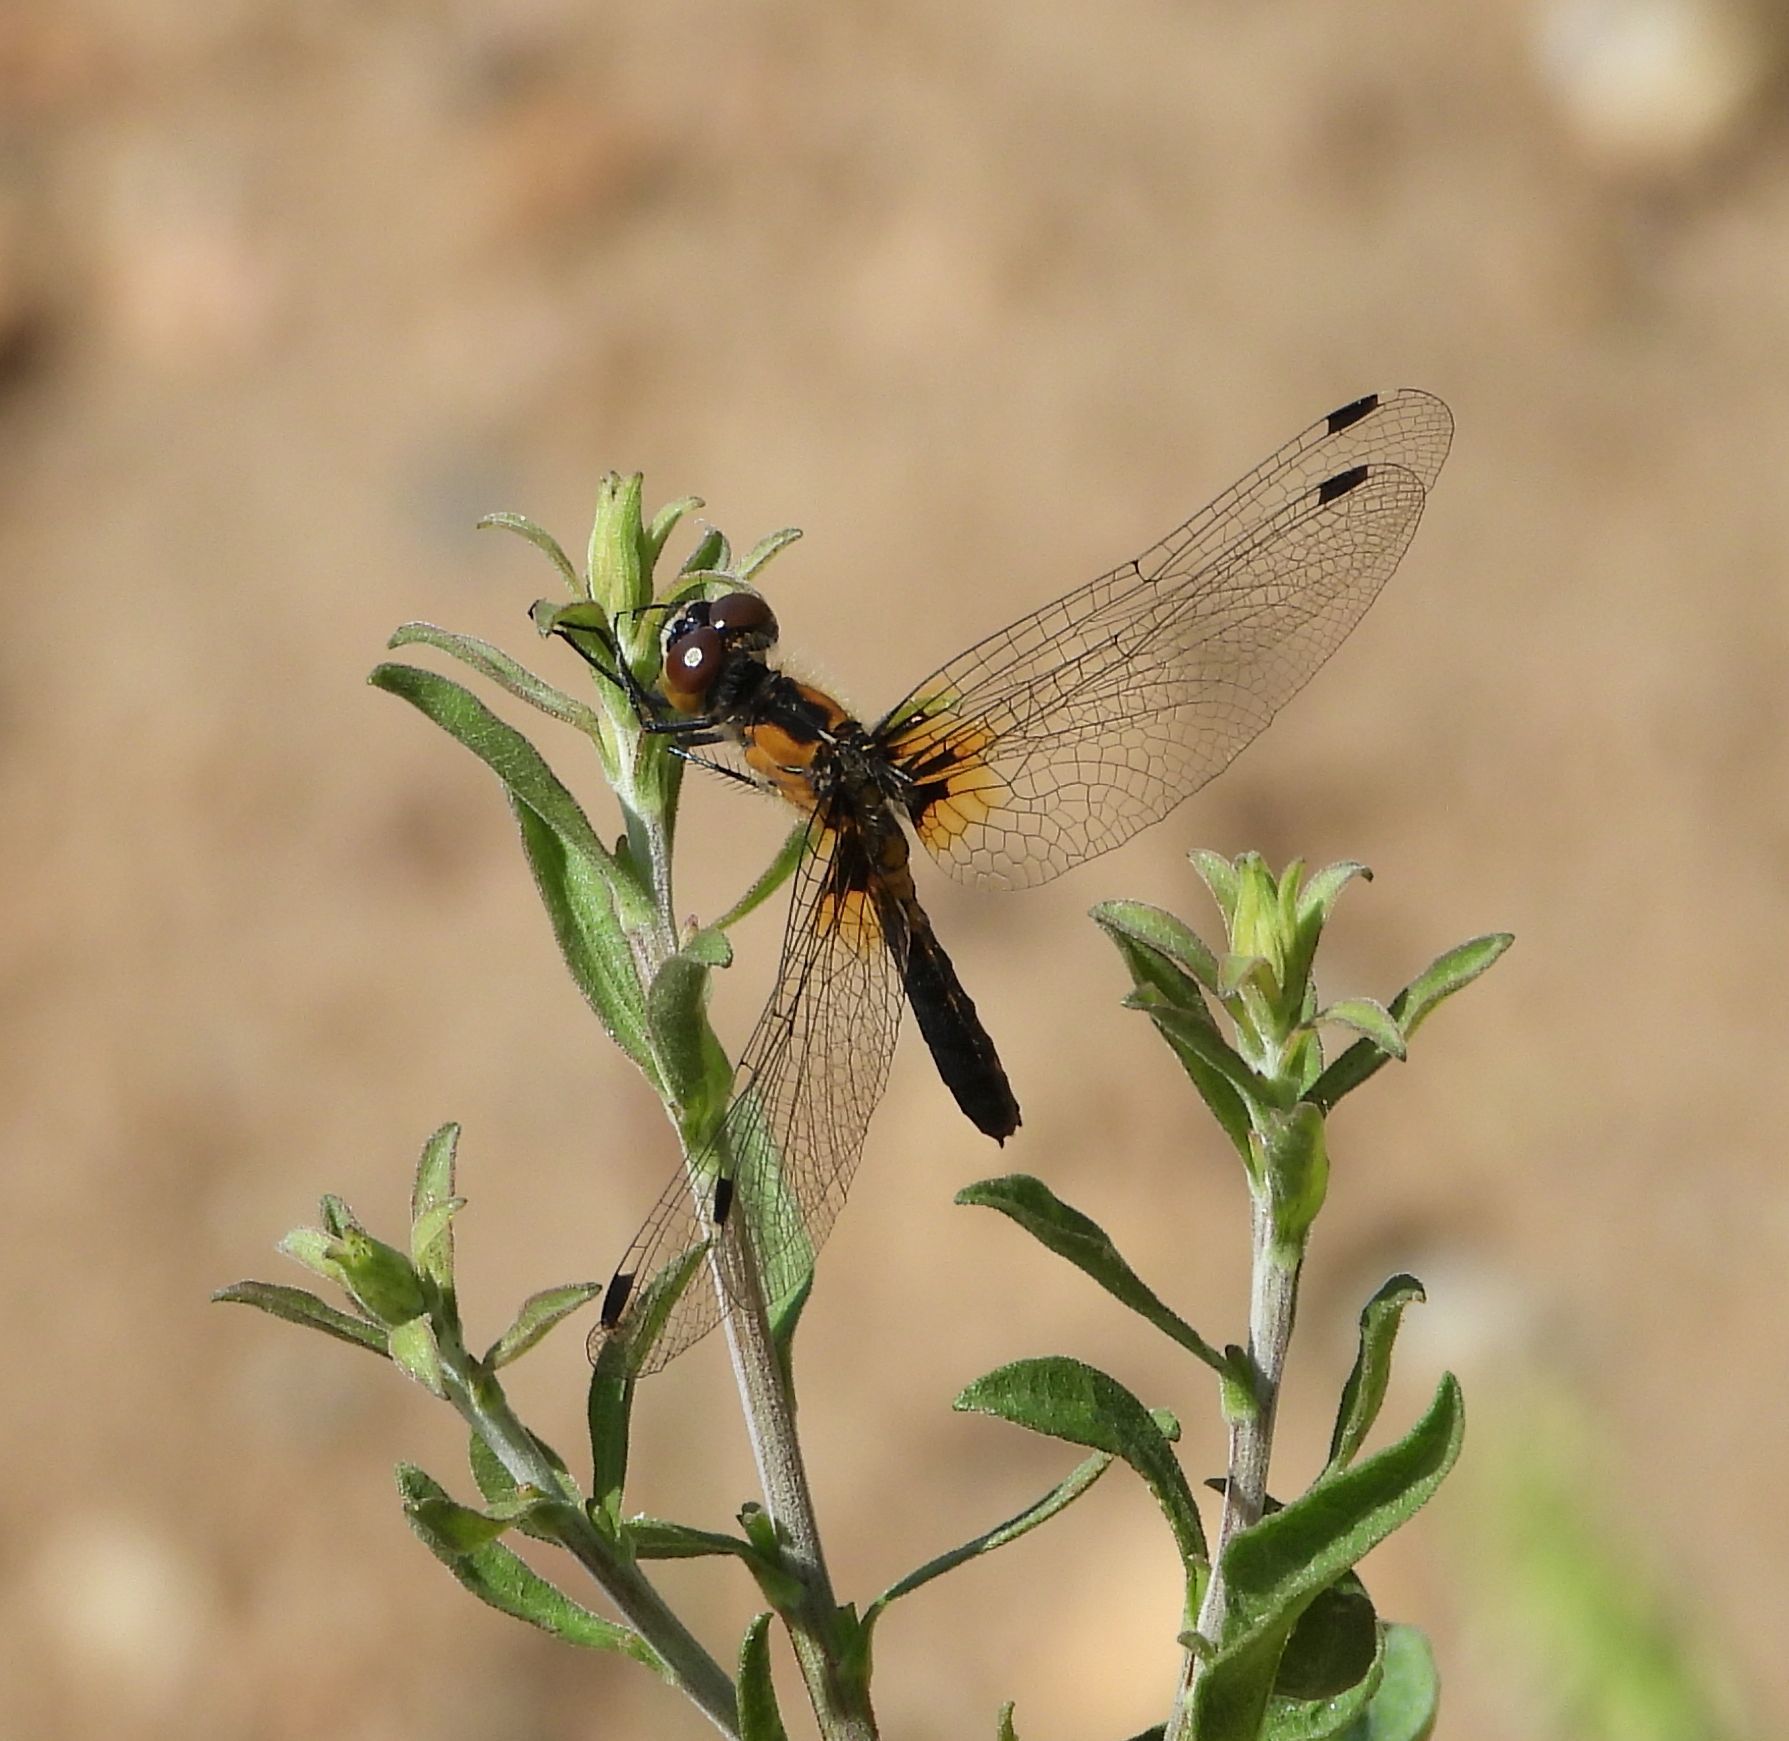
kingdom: Animalia
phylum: Arthropoda
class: Insecta
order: Odonata
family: Libellulidae
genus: Leucorrhinia
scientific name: Leucorrhinia frigida
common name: Frosted whiteface
